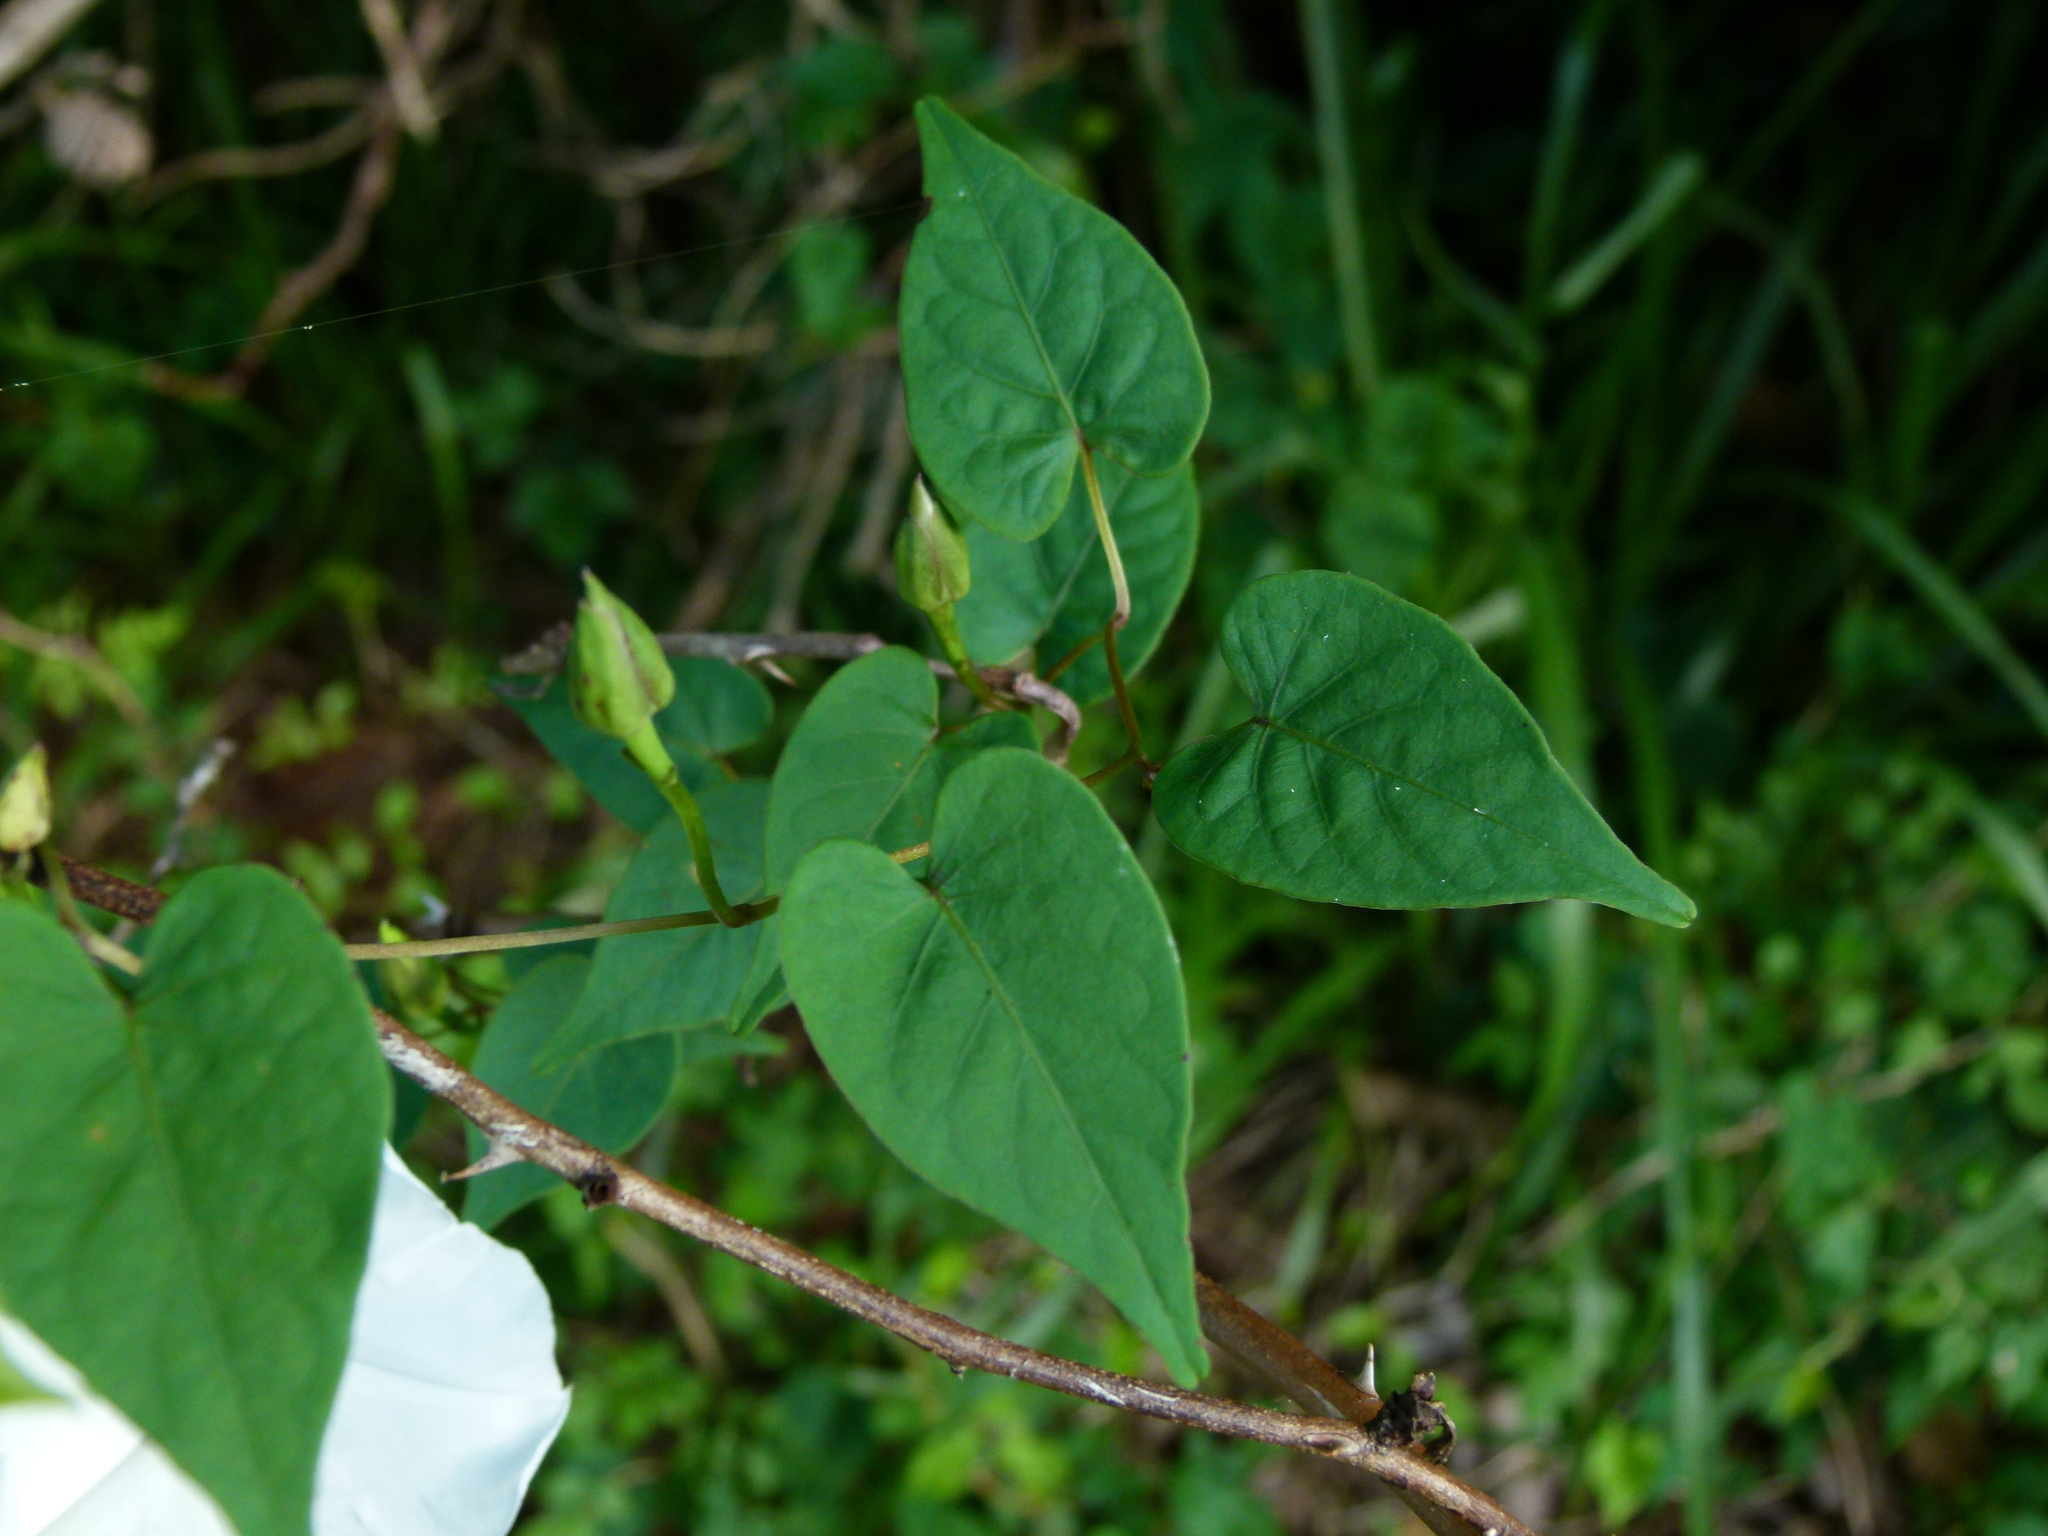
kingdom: Plantae
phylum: Tracheophyta
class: Magnoliopsida
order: Solanales
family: Convolvulaceae
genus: Ipomoea
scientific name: Ipomoea pandurata
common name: Man-of-the-earth
